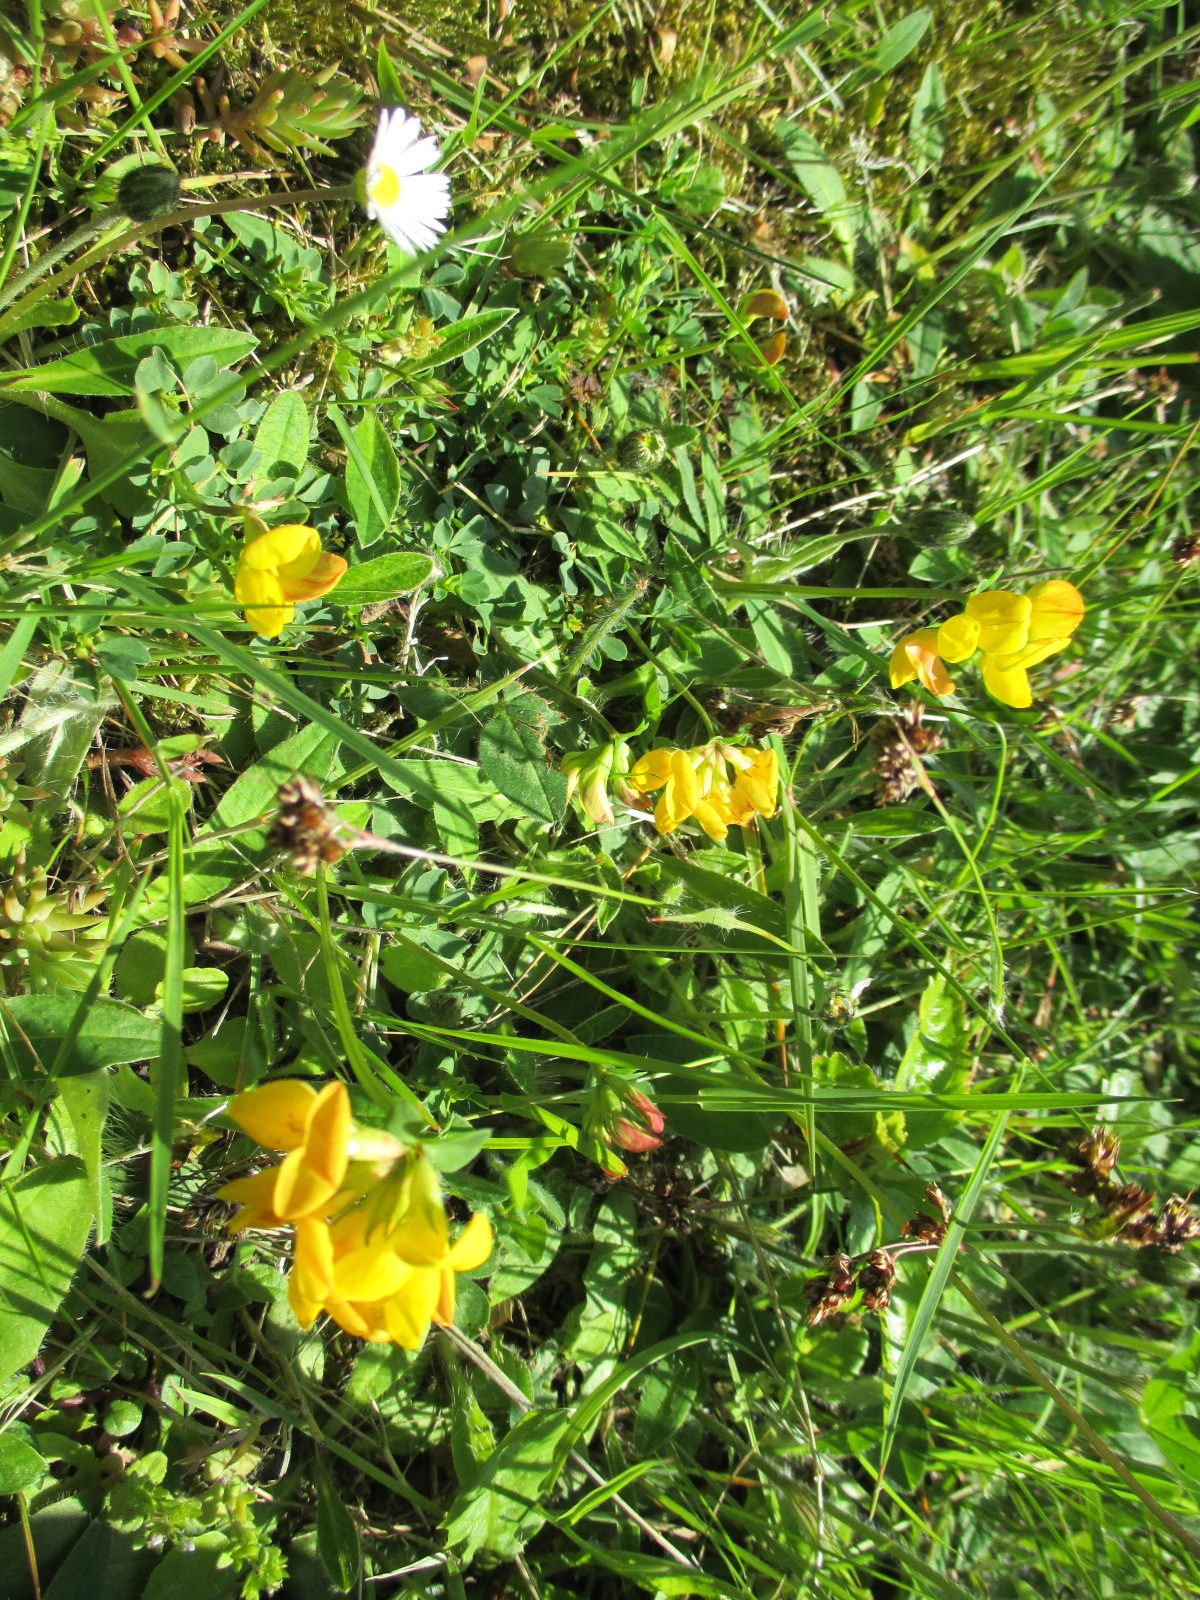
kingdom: Plantae
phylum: Tracheophyta
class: Magnoliopsida
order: Fabales
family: Fabaceae
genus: Lotus
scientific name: Lotus corniculatus
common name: Common bird's-foot-trefoil
